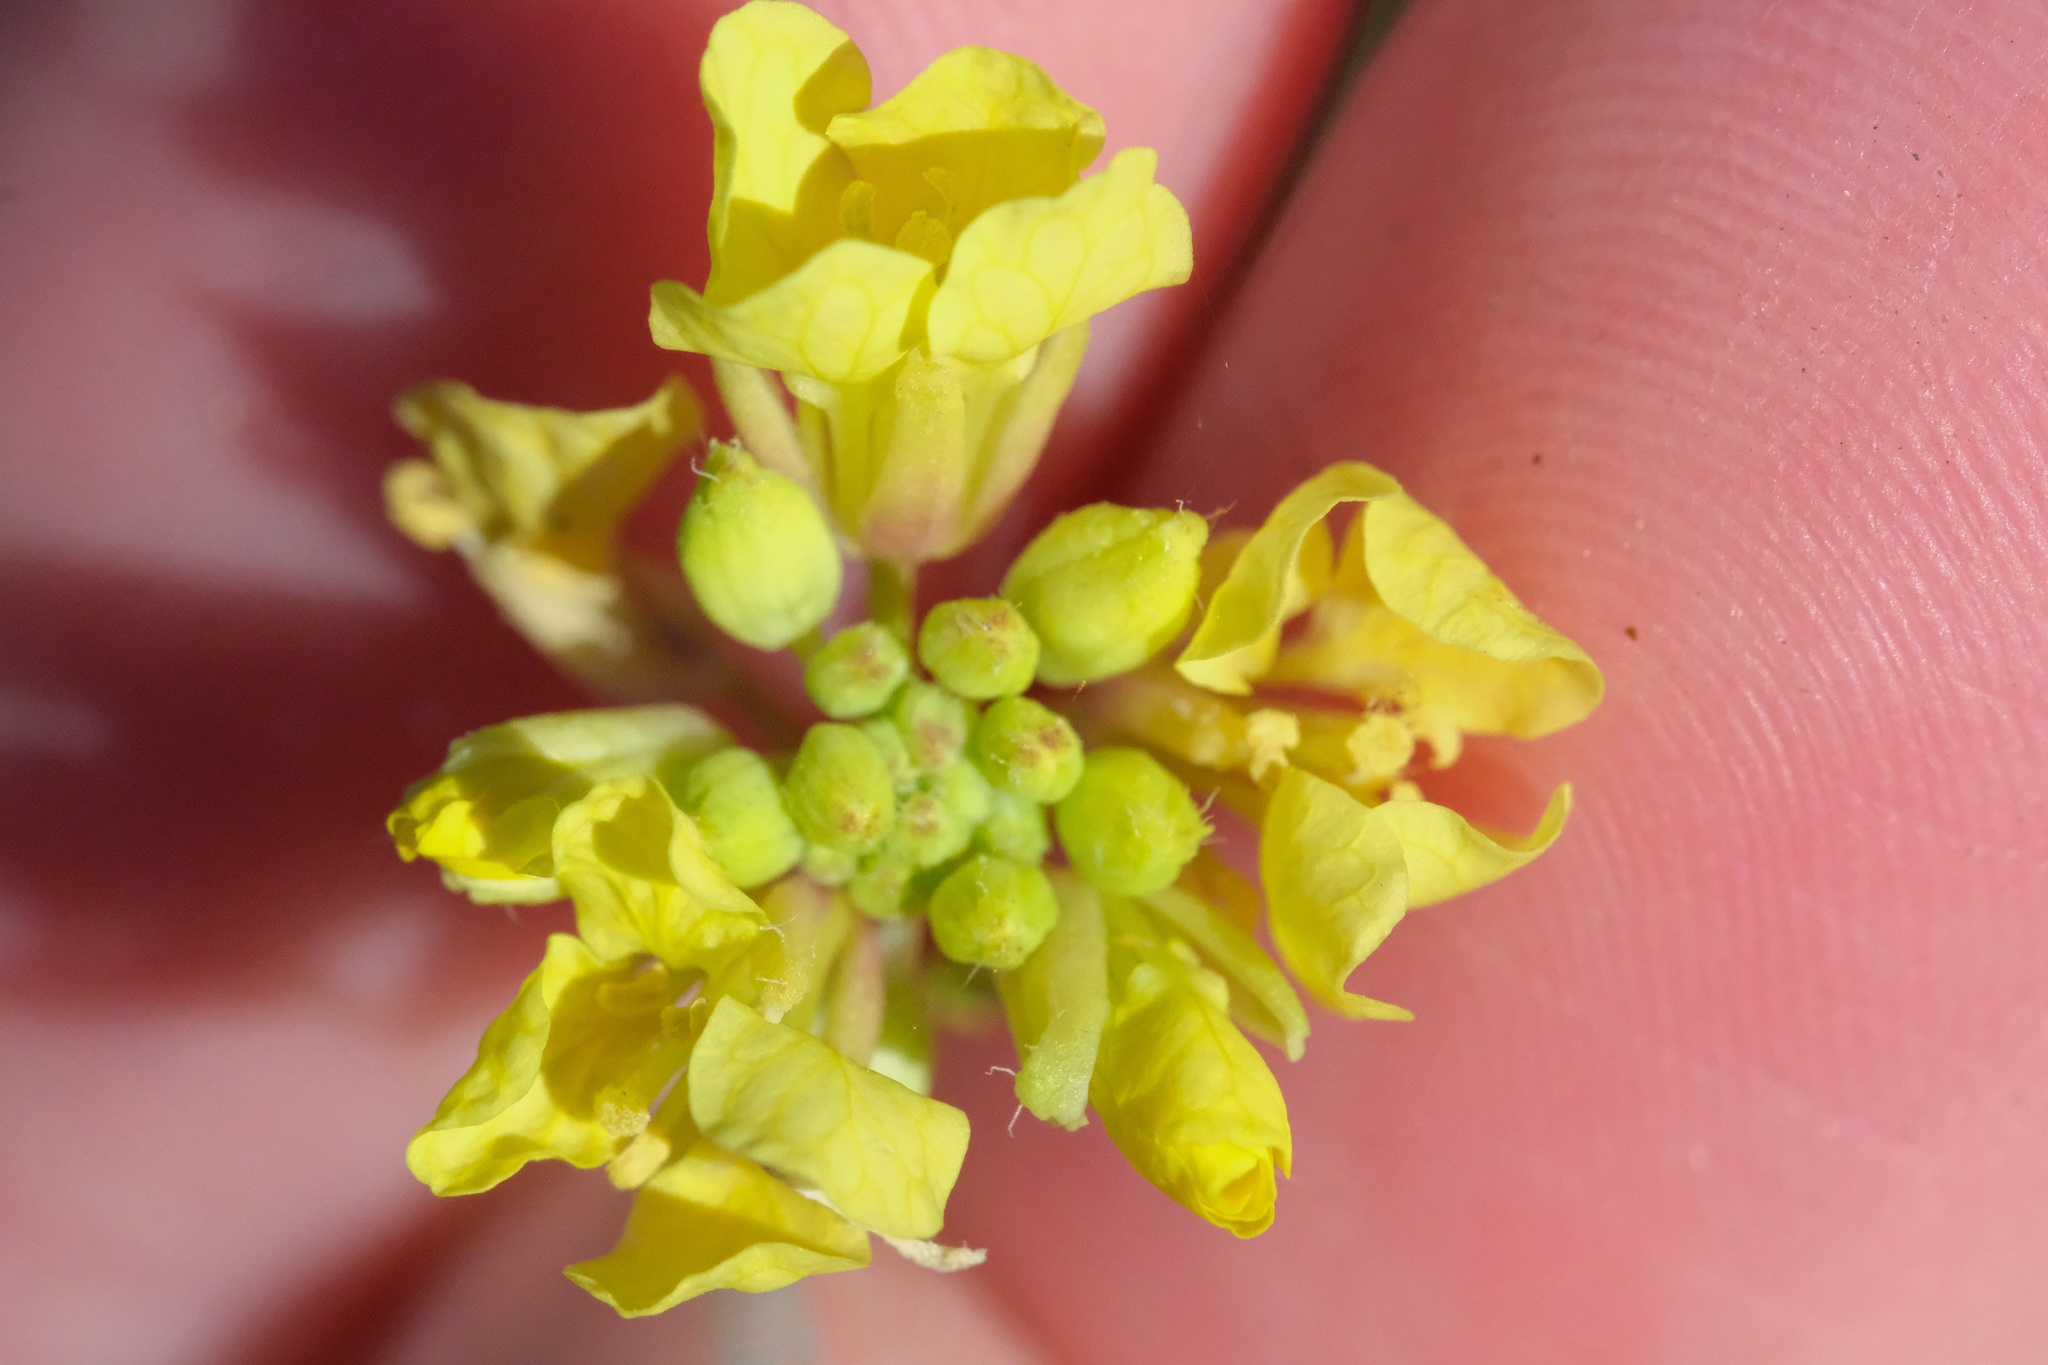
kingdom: Plantae
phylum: Tracheophyta
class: Magnoliopsida
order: Brassicales
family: Brassicaceae
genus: Hirschfeldia
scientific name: Hirschfeldia incana
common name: Hoary mustard
